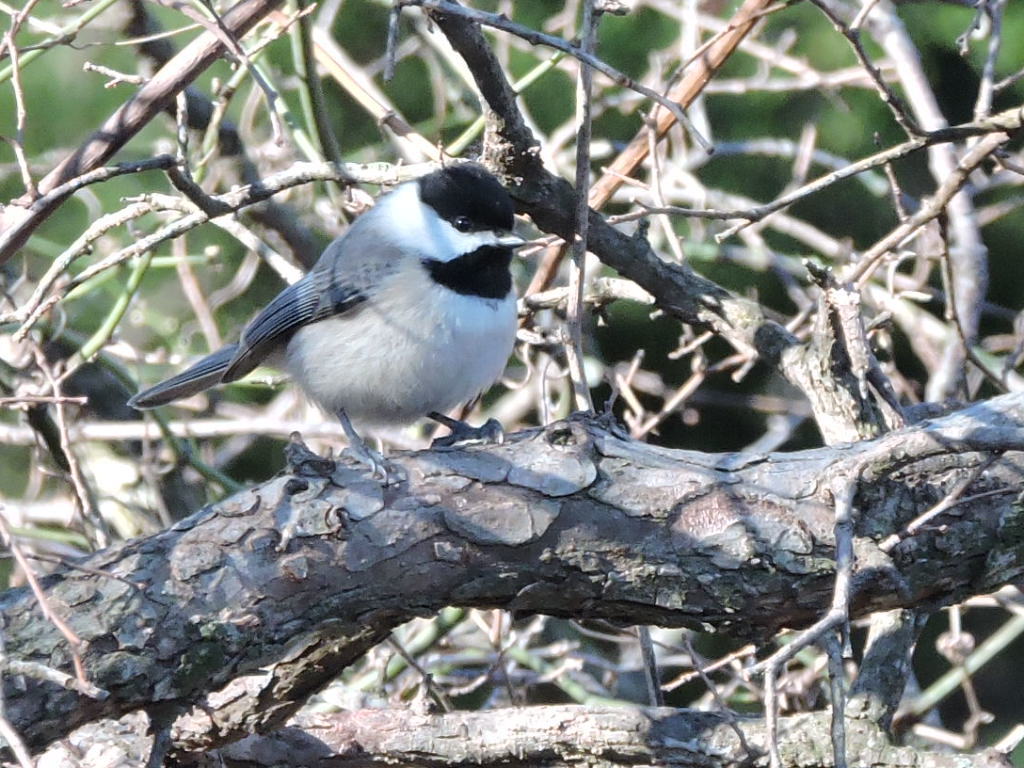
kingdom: Animalia
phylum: Chordata
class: Aves
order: Passeriformes
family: Paridae
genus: Poecile
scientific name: Poecile carolinensis
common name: Carolina chickadee
